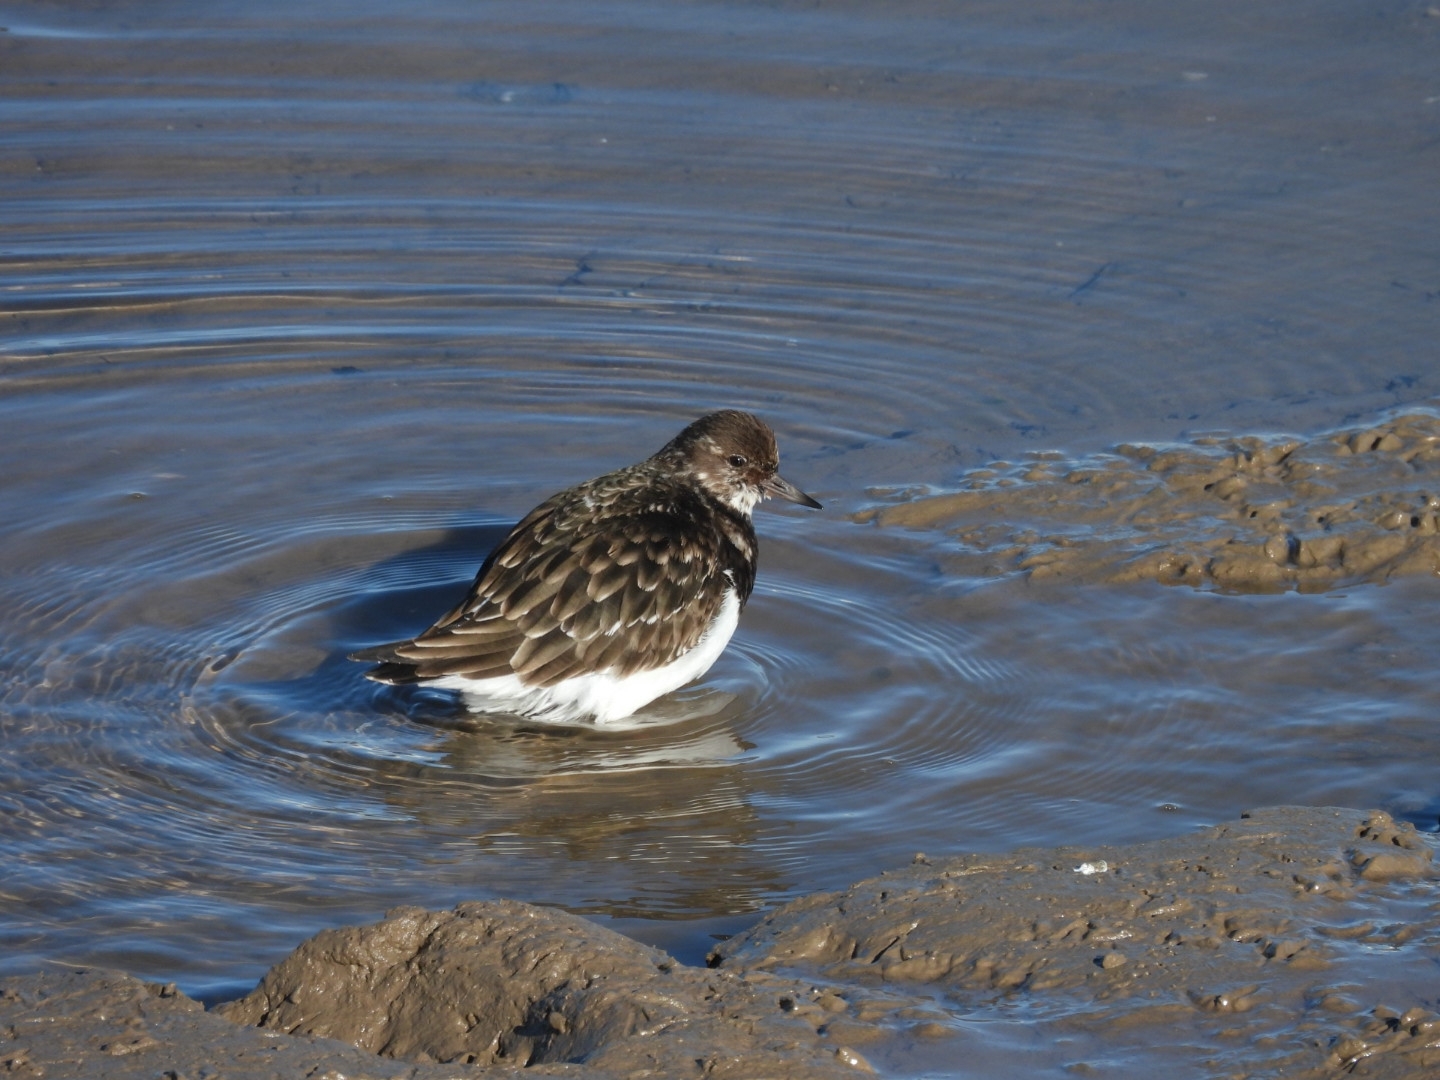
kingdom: Animalia
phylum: Chordata
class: Aves
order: Charadriiformes
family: Scolopacidae
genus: Arenaria
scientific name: Arenaria interpres
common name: Ruddy turnstone
